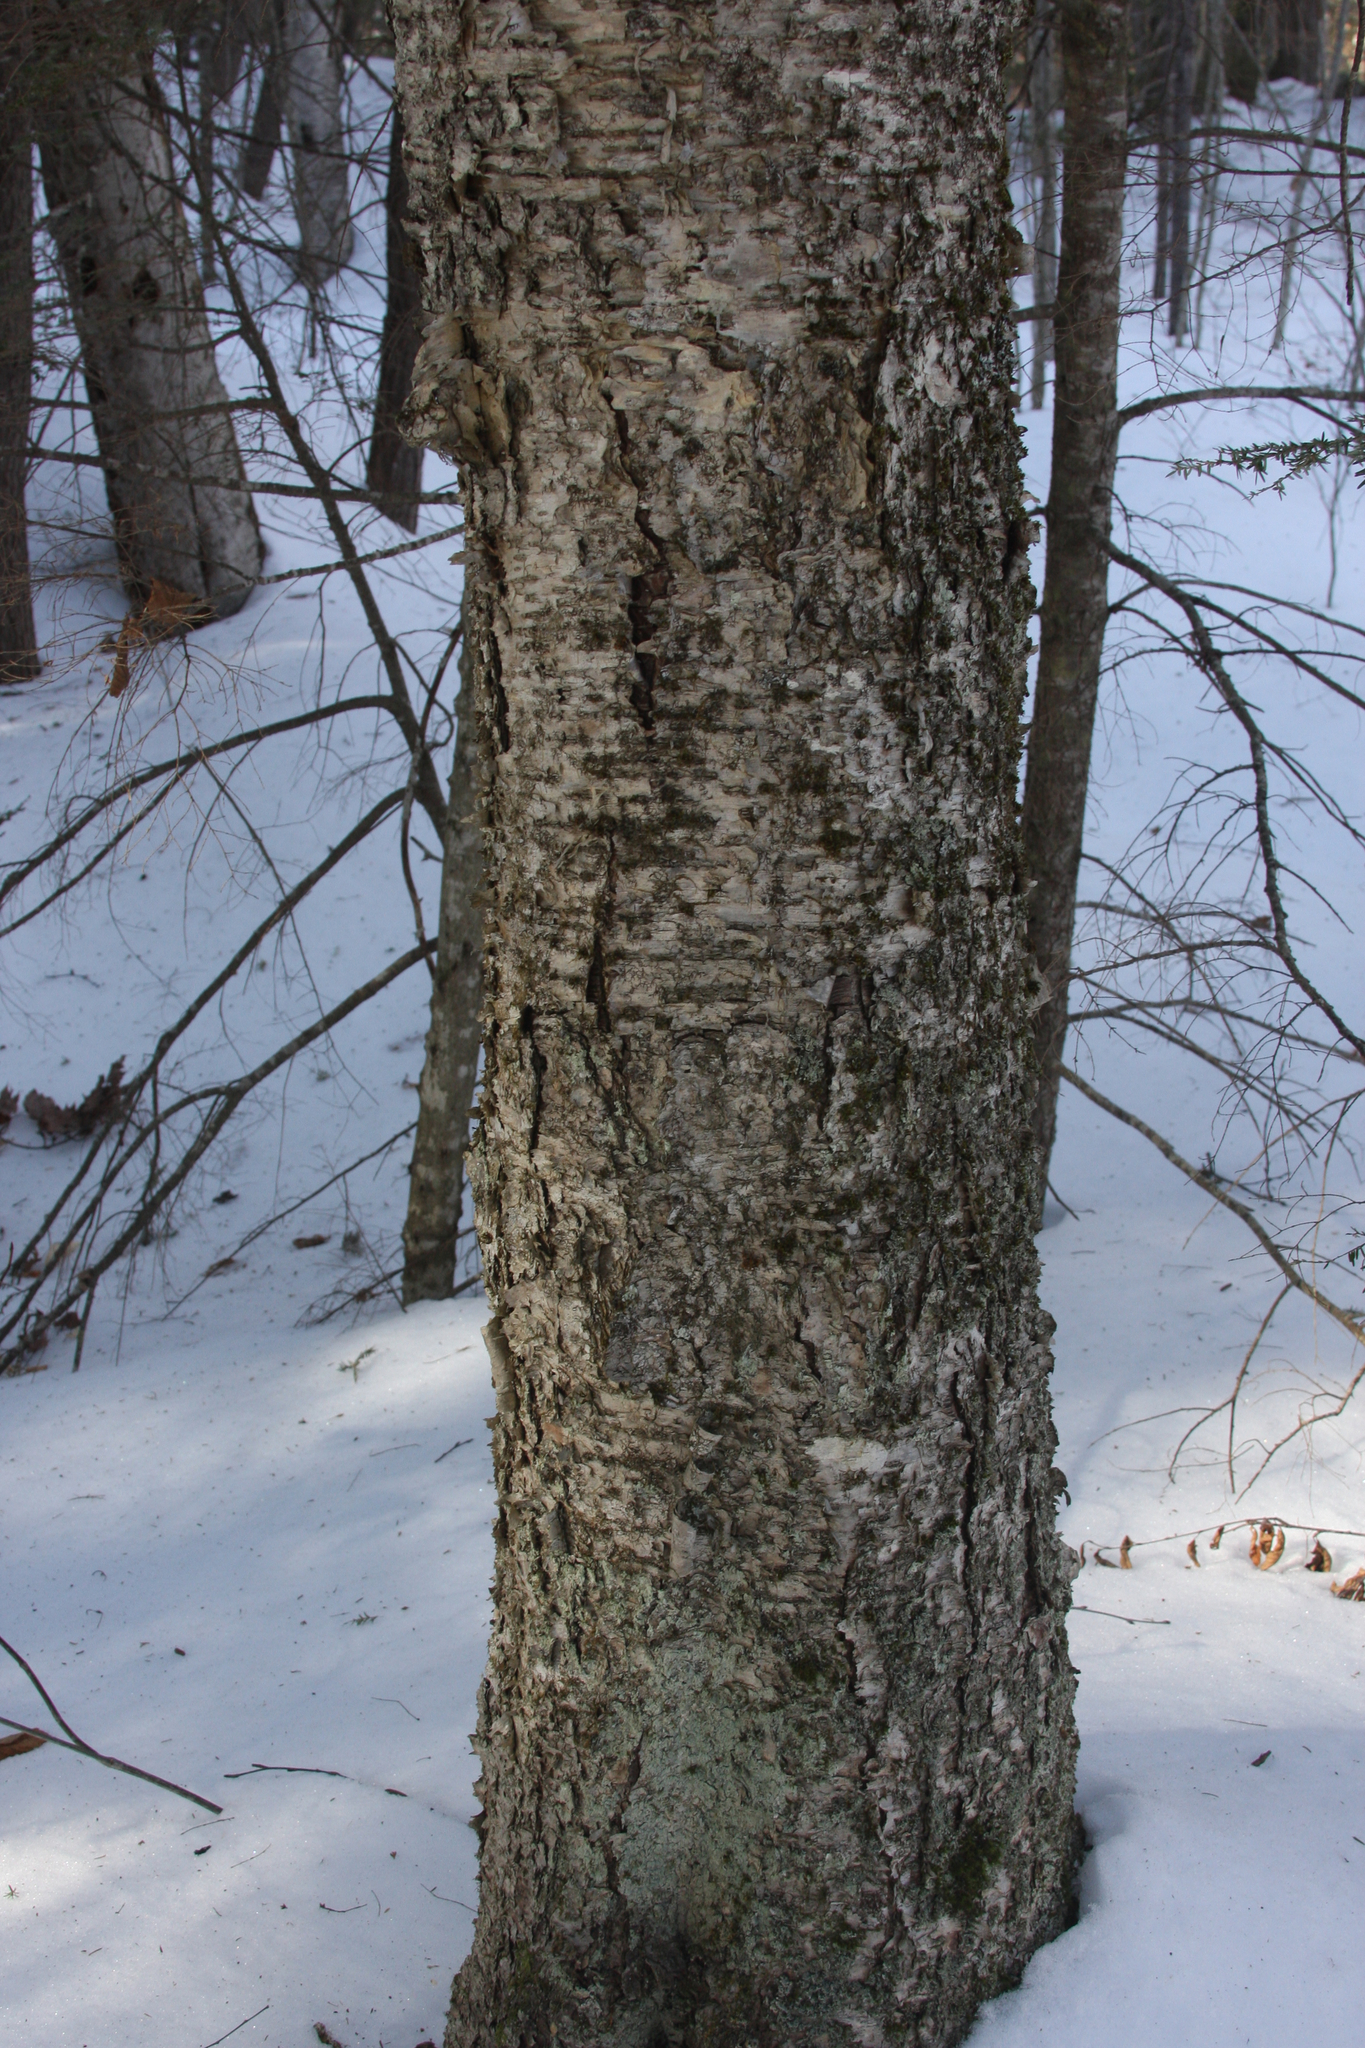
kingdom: Plantae
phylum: Tracheophyta
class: Magnoliopsida
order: Fagales
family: Betulaceae
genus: Betula
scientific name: Betula alleghaniensis
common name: Yellow birch
